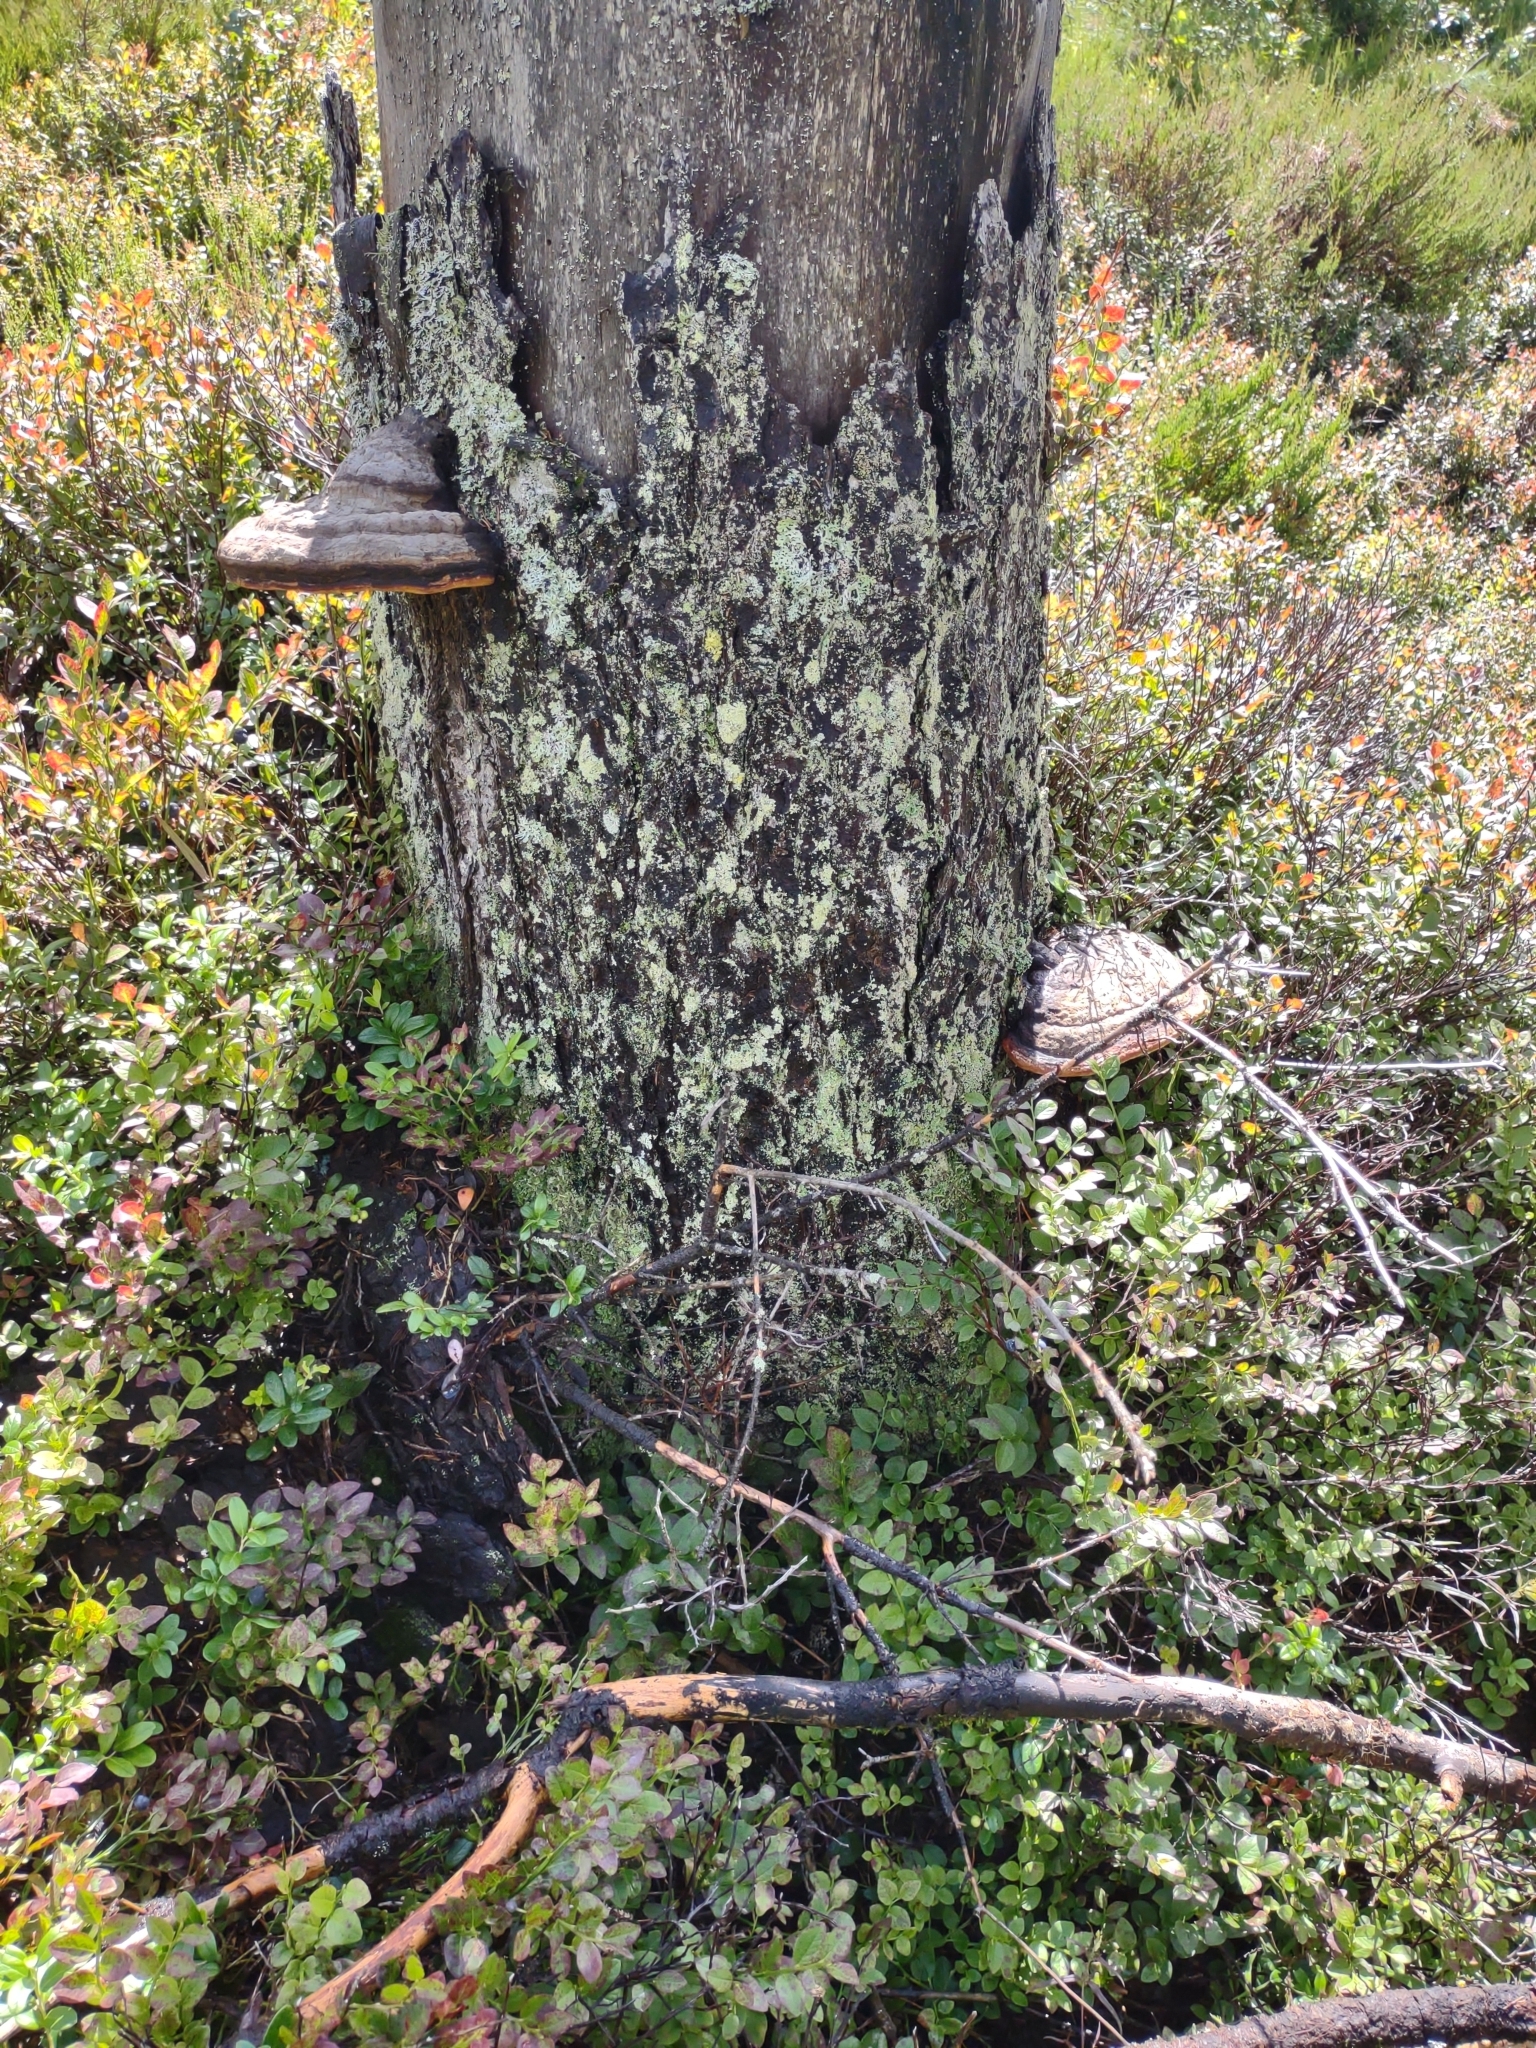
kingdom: Fungi
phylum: Basidiomycota
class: Agaricomycetes
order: Polyporales
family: Fomitopsidaceae
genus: Fomitopsis
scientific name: Fomitopsis pinicola
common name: Red-belted bracket
